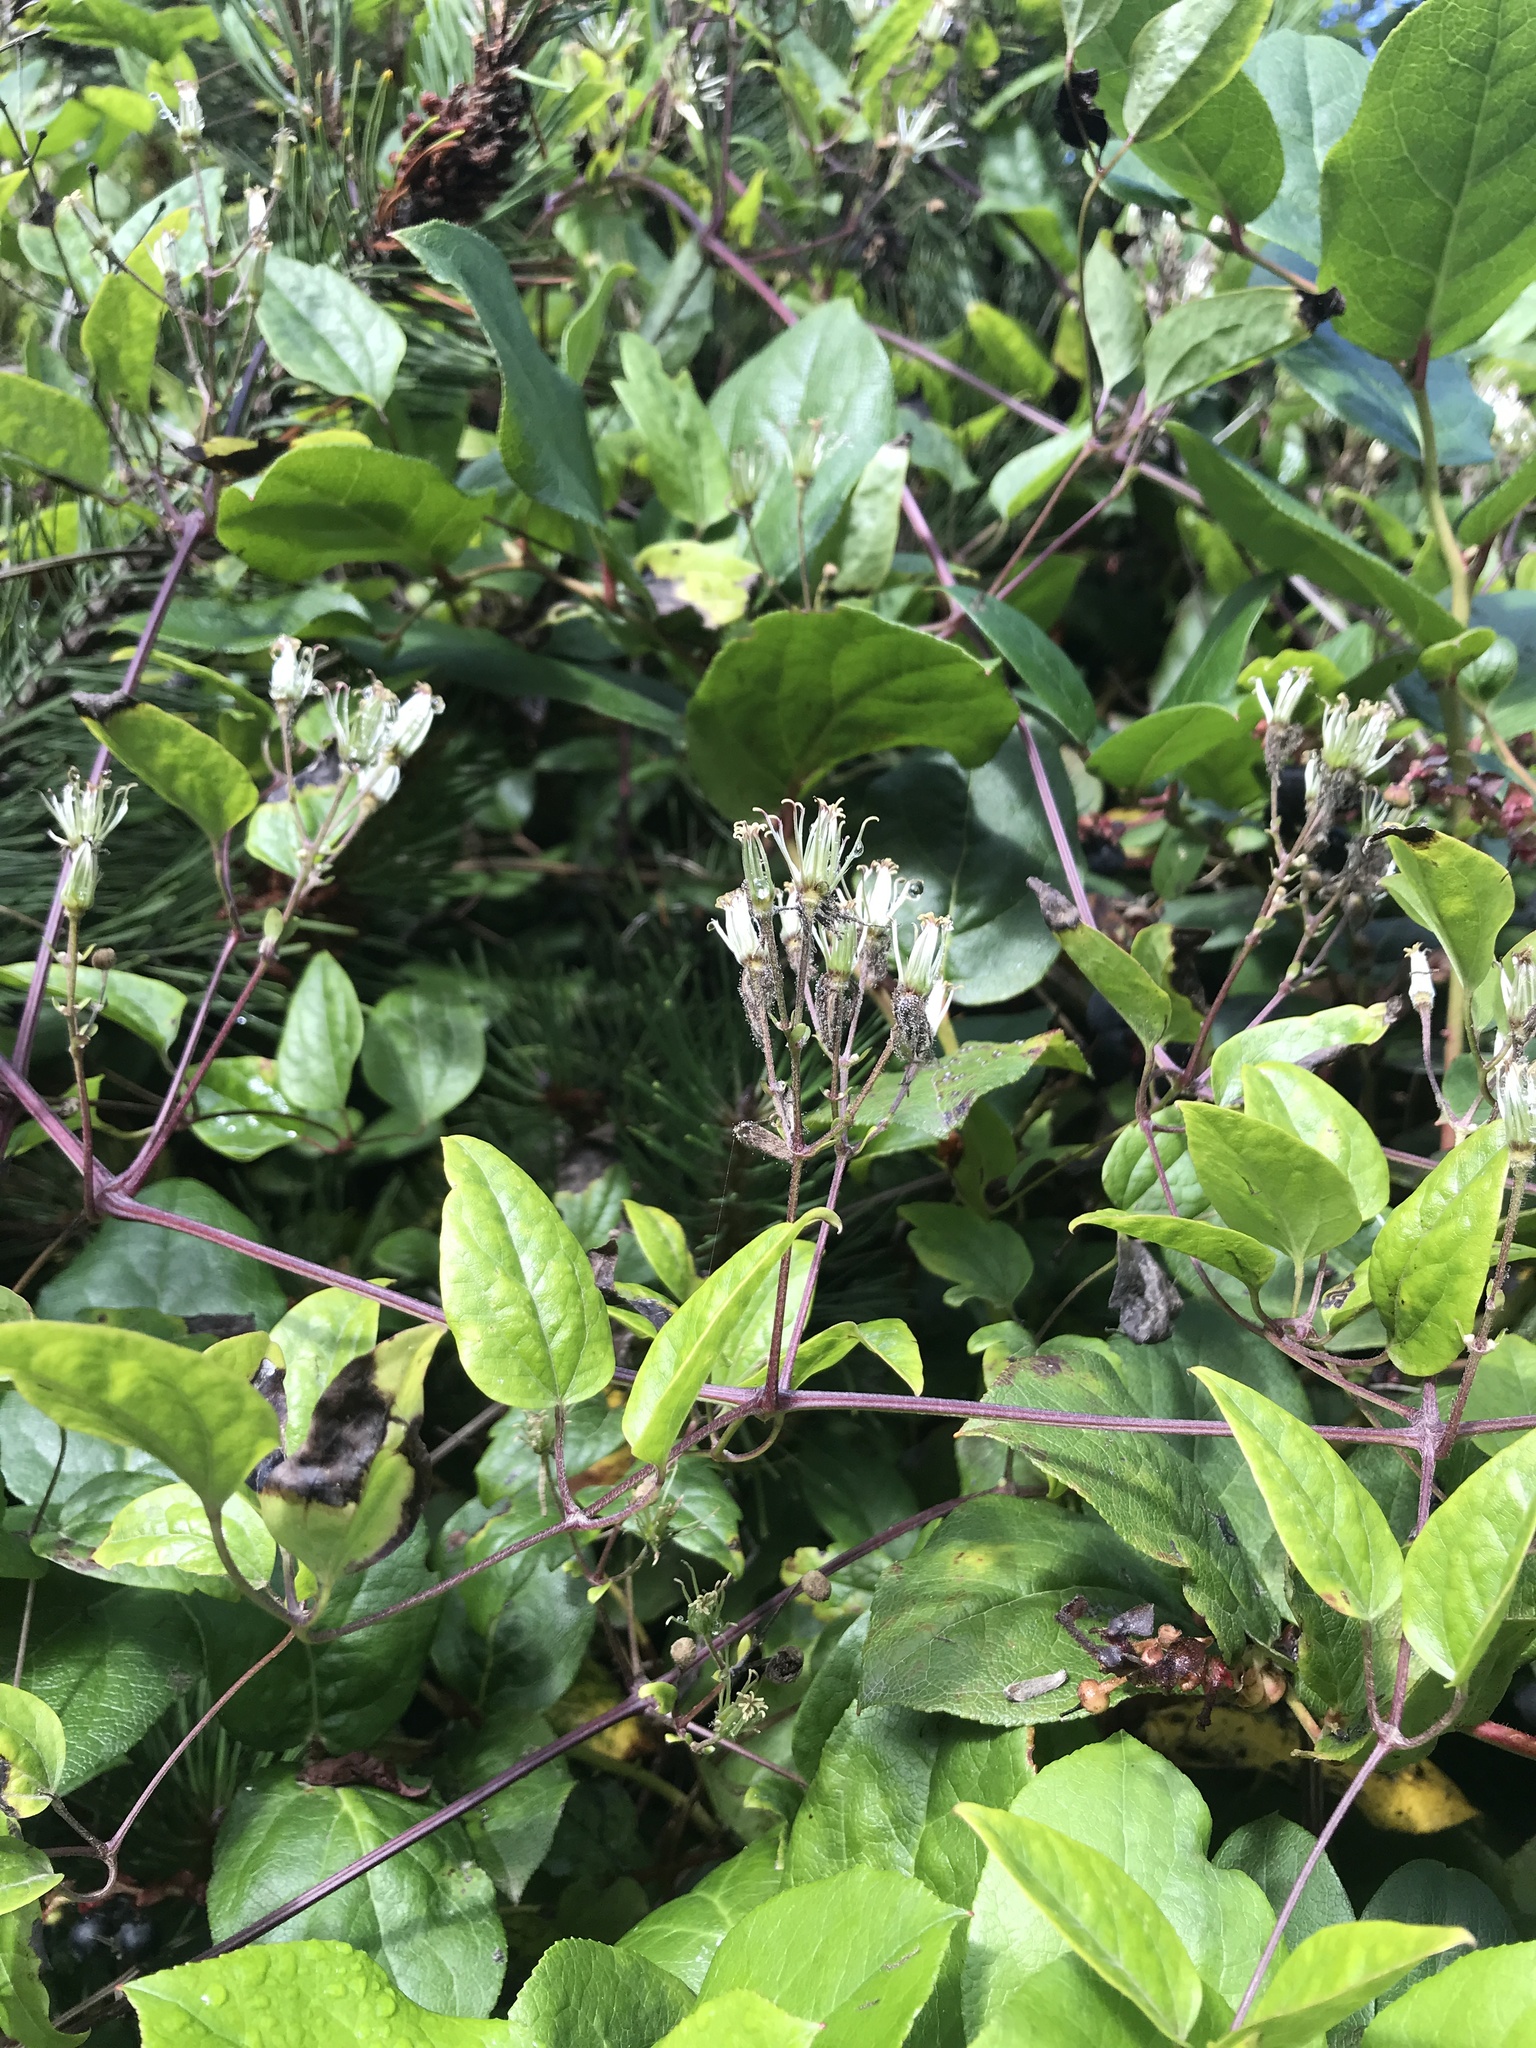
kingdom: Plantae
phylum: Tracheophyta
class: Magnoliopsida
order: Ranunculales
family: Ranunculaceae
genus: Clematis
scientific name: Clematis vitalba
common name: Evergreen clematis
